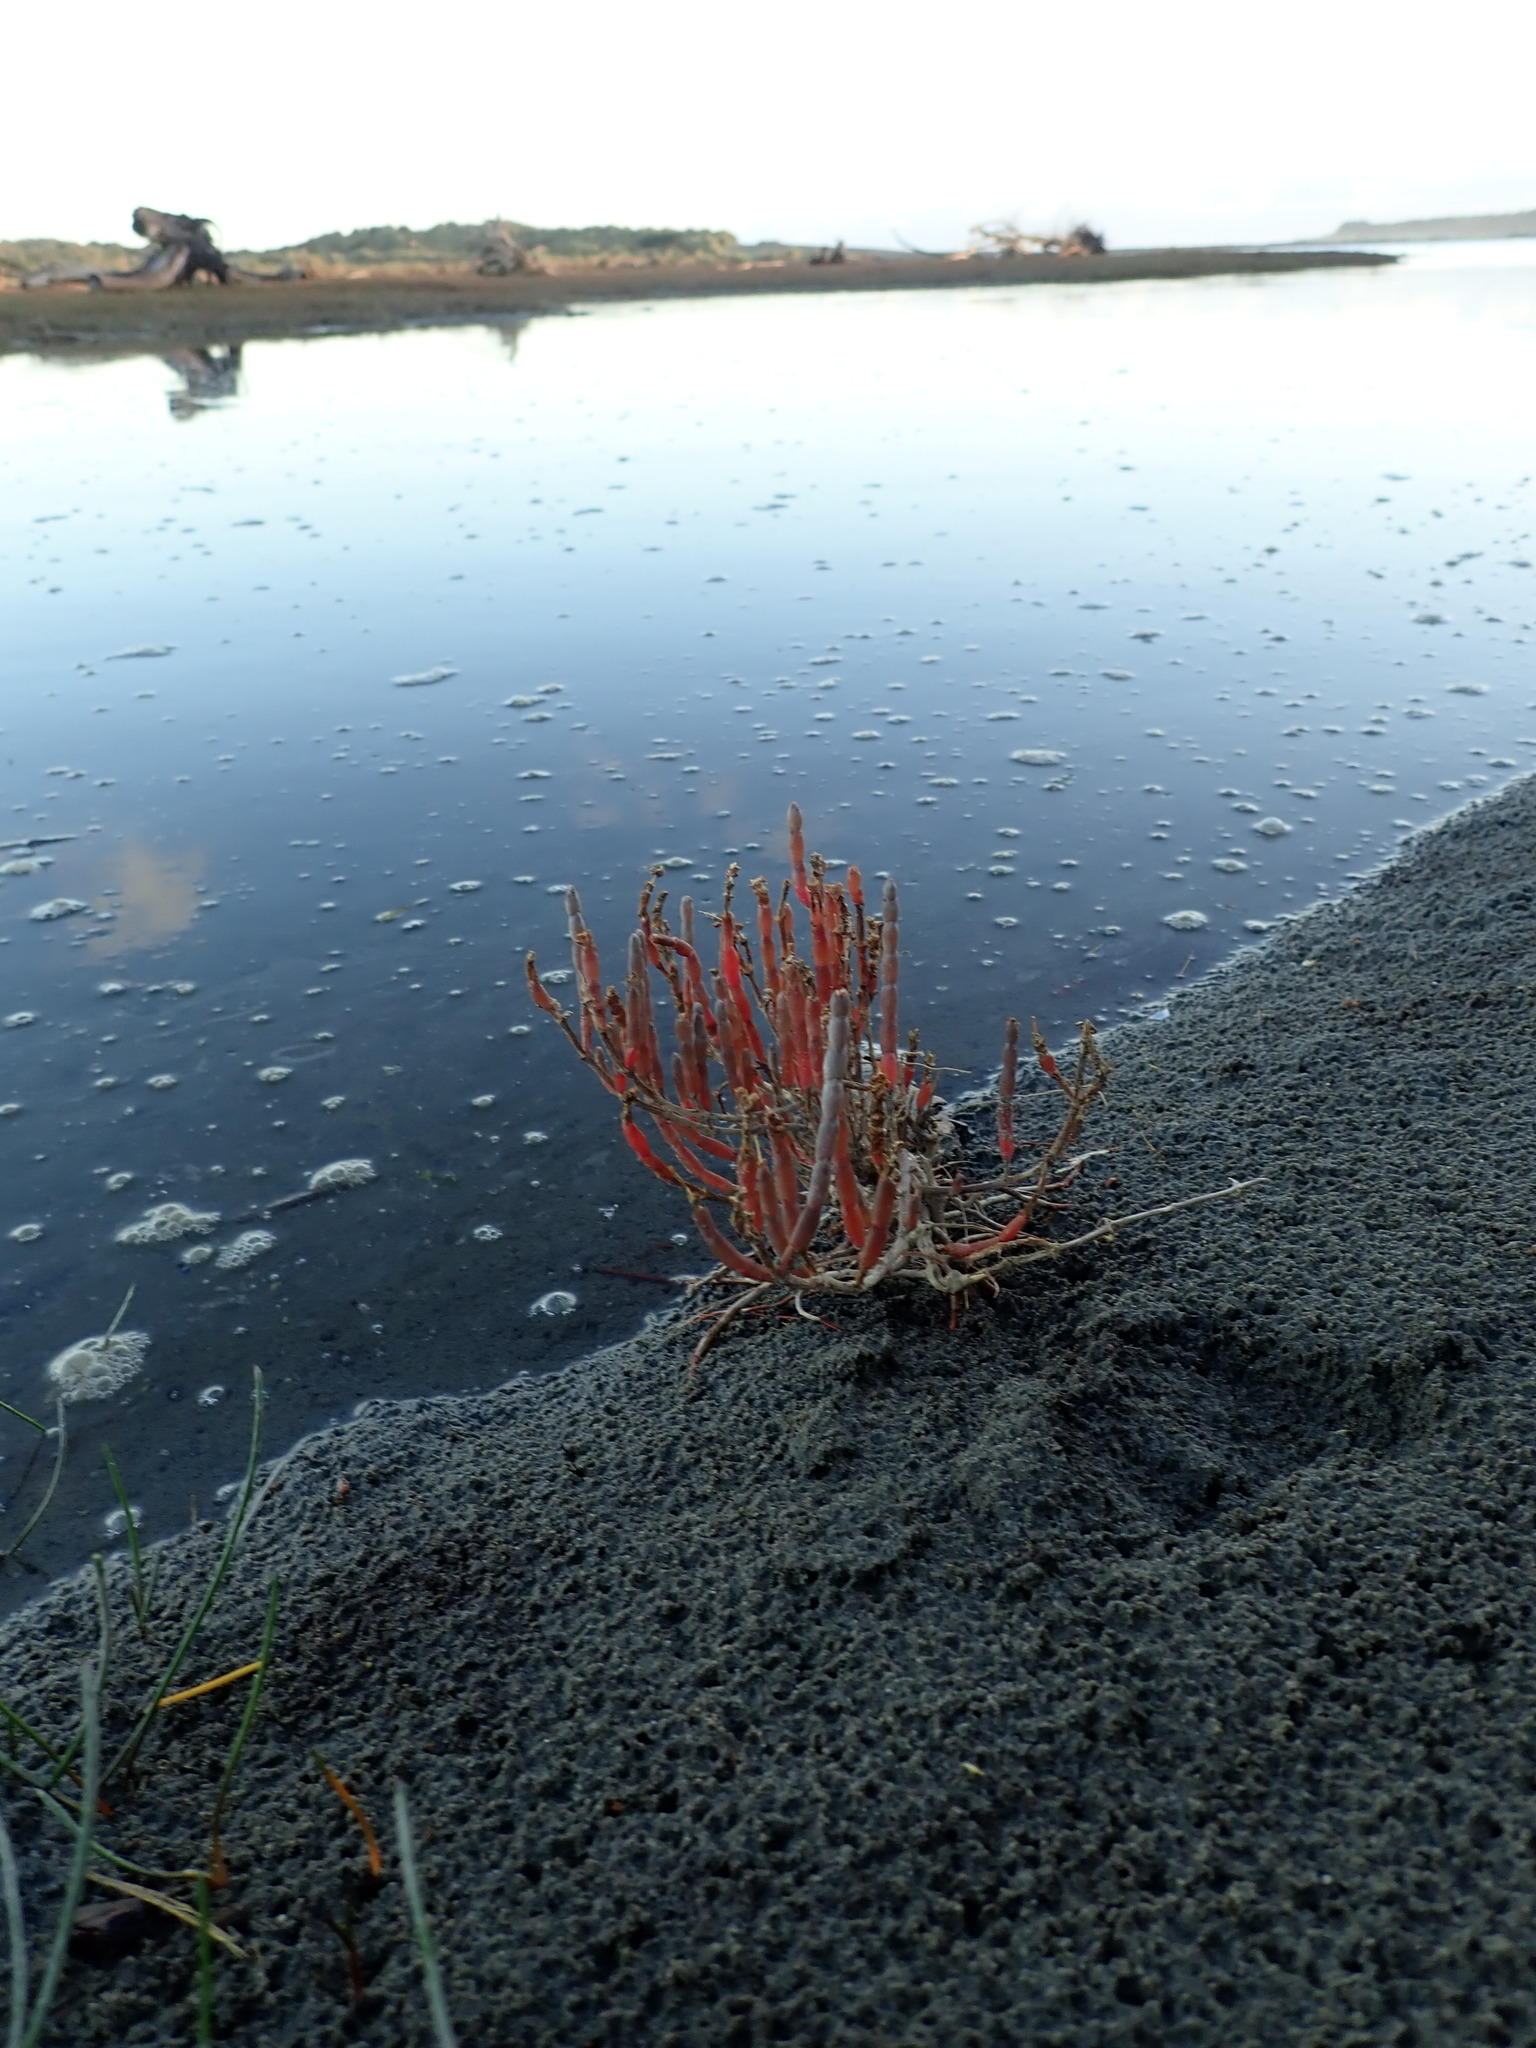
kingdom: Plantae
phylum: Tracheophyta
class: Magnoliopsida
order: Caryophyllales
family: Amaranthaceae
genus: Salicornia
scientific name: Salicornia quinqueflora
